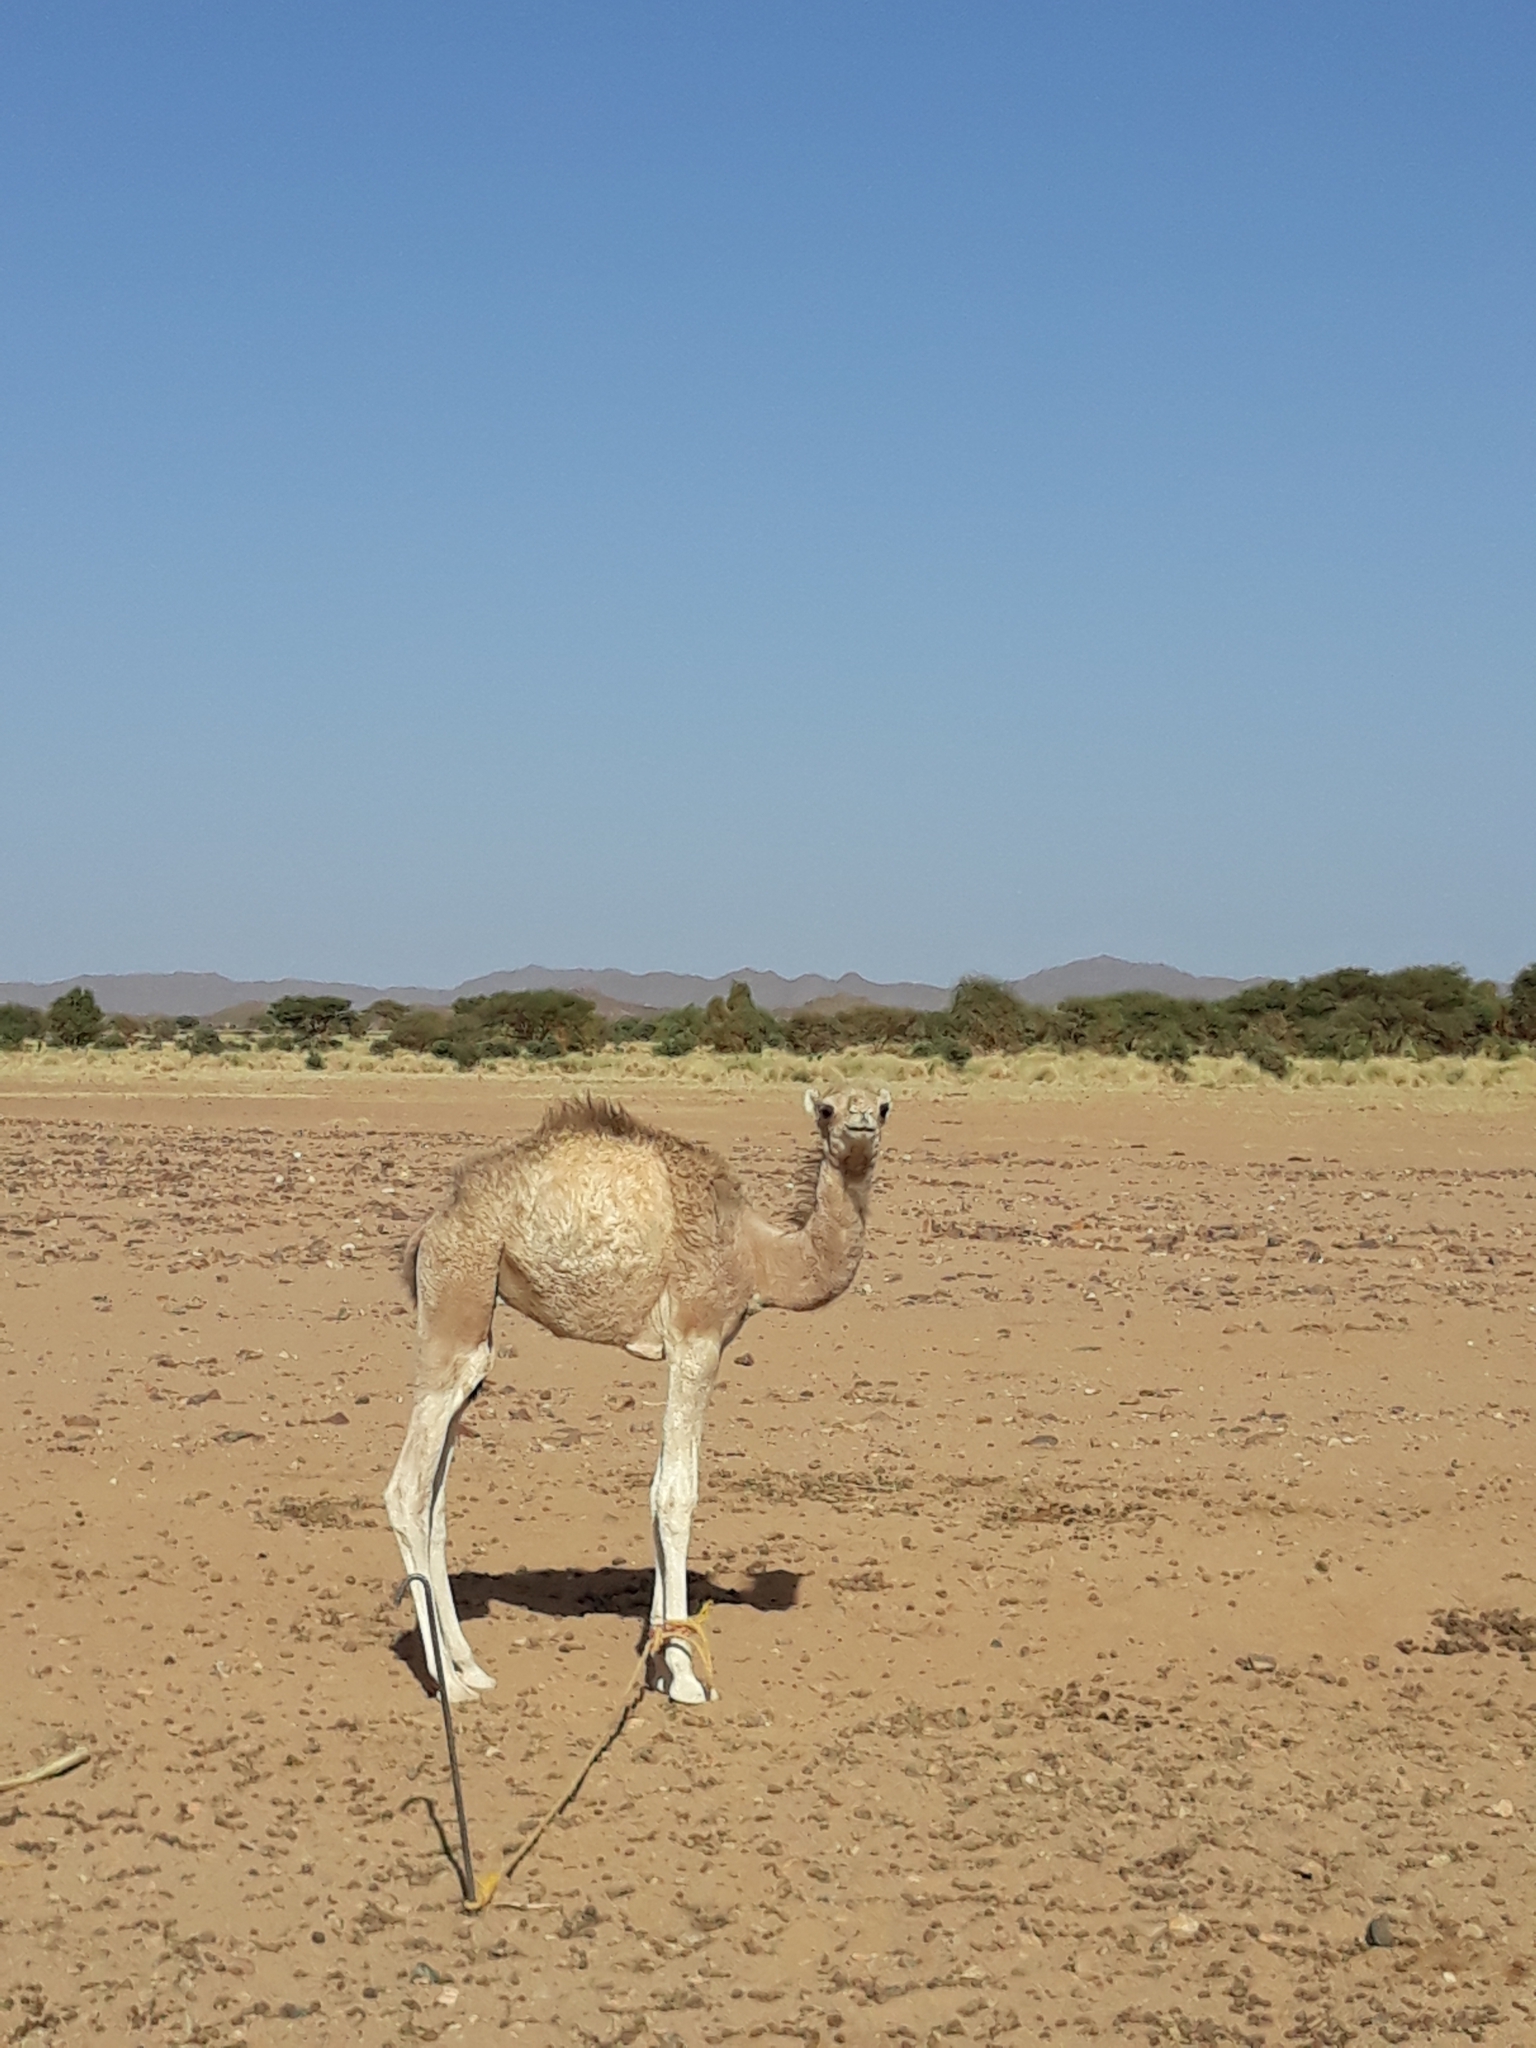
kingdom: Animalia
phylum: Chordata
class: Mammalia
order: Artiodactyla
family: Camelidae
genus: Camelus
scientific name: Camelus dromedarius
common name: One-humped camel
